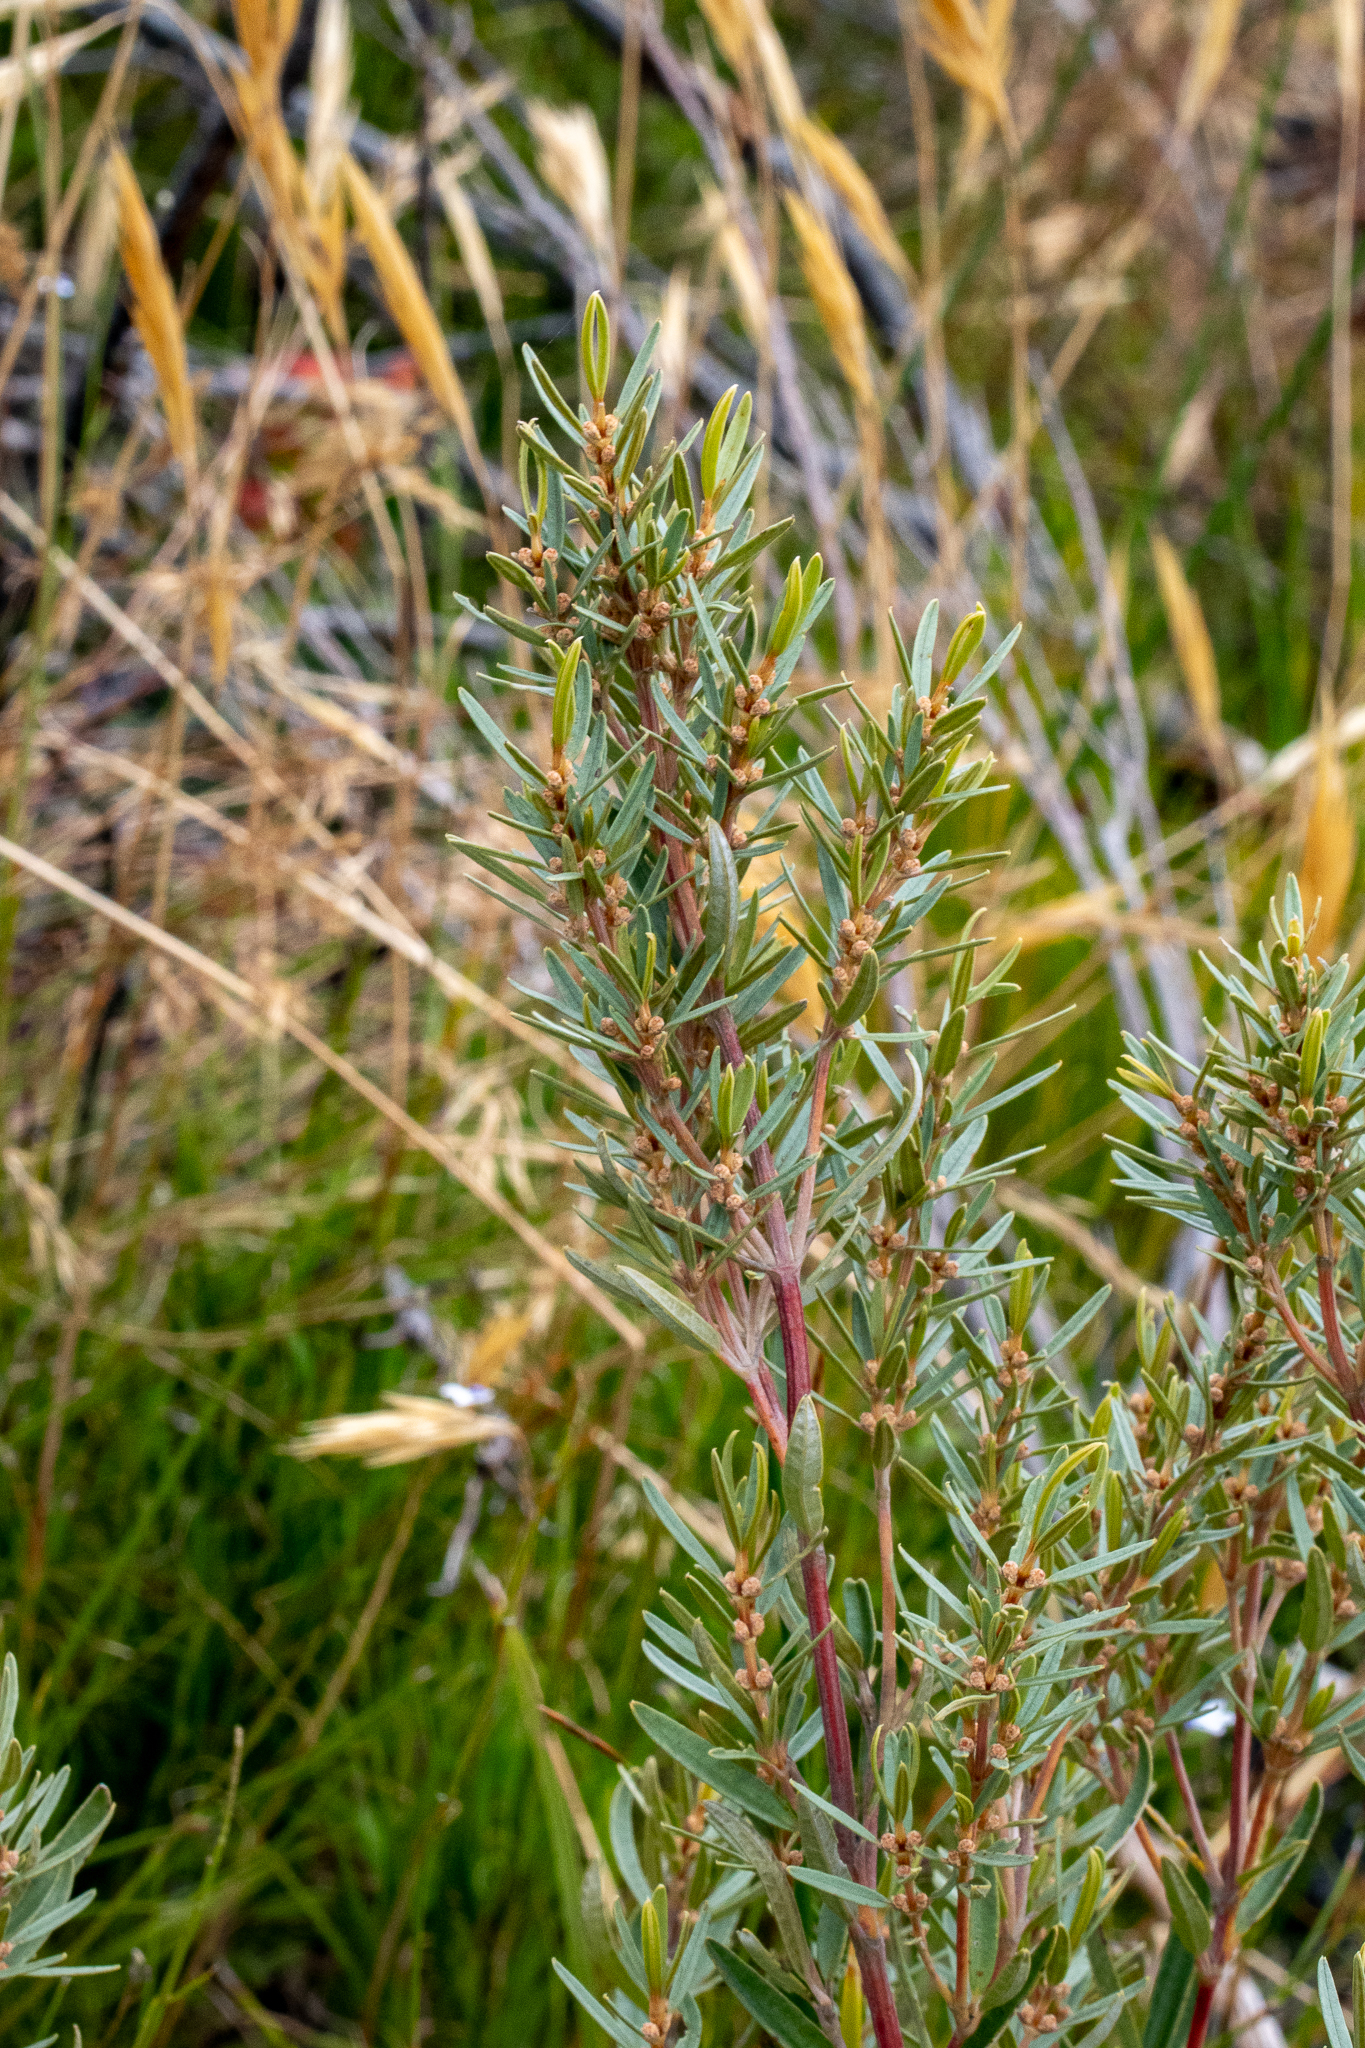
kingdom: Plantae
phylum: Tracheophyta
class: Magnoliopsida
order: Cornales
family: Grubbiaceae
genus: Grubbia
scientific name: Grubbia tomentosa
